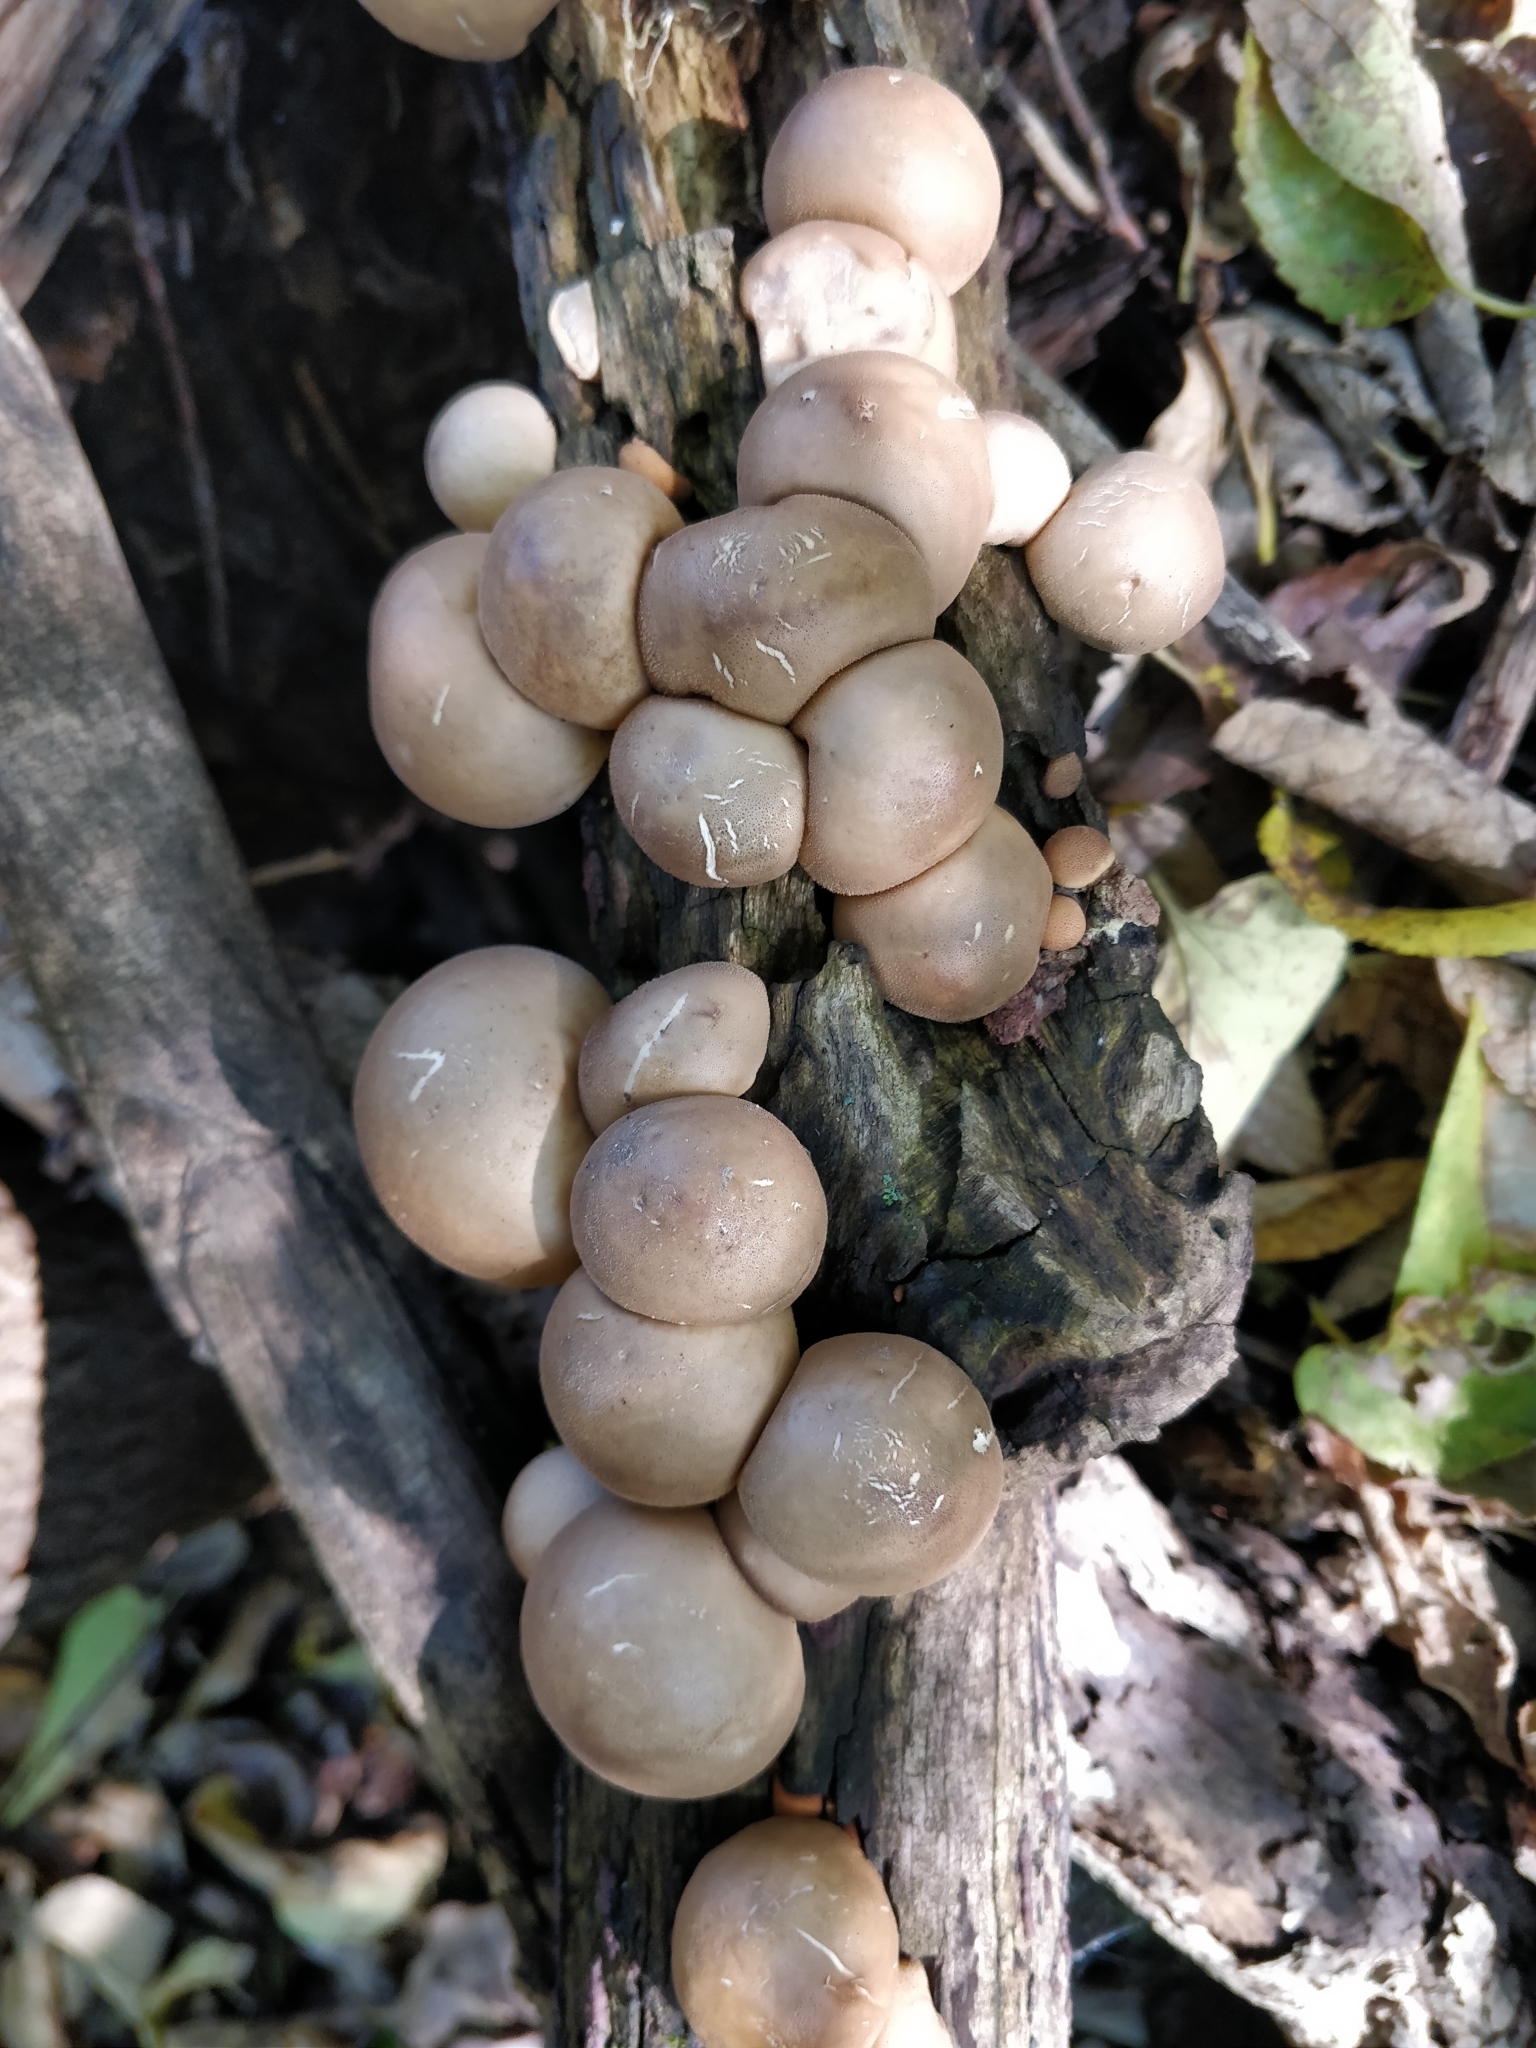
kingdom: Fungi
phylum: Basidiomycota
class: Agaricomycetes
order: Agaricales
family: Lycoperdaceae
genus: Apioperdon
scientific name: Apioperdon pyriforme
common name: Pear-shaped puffball
